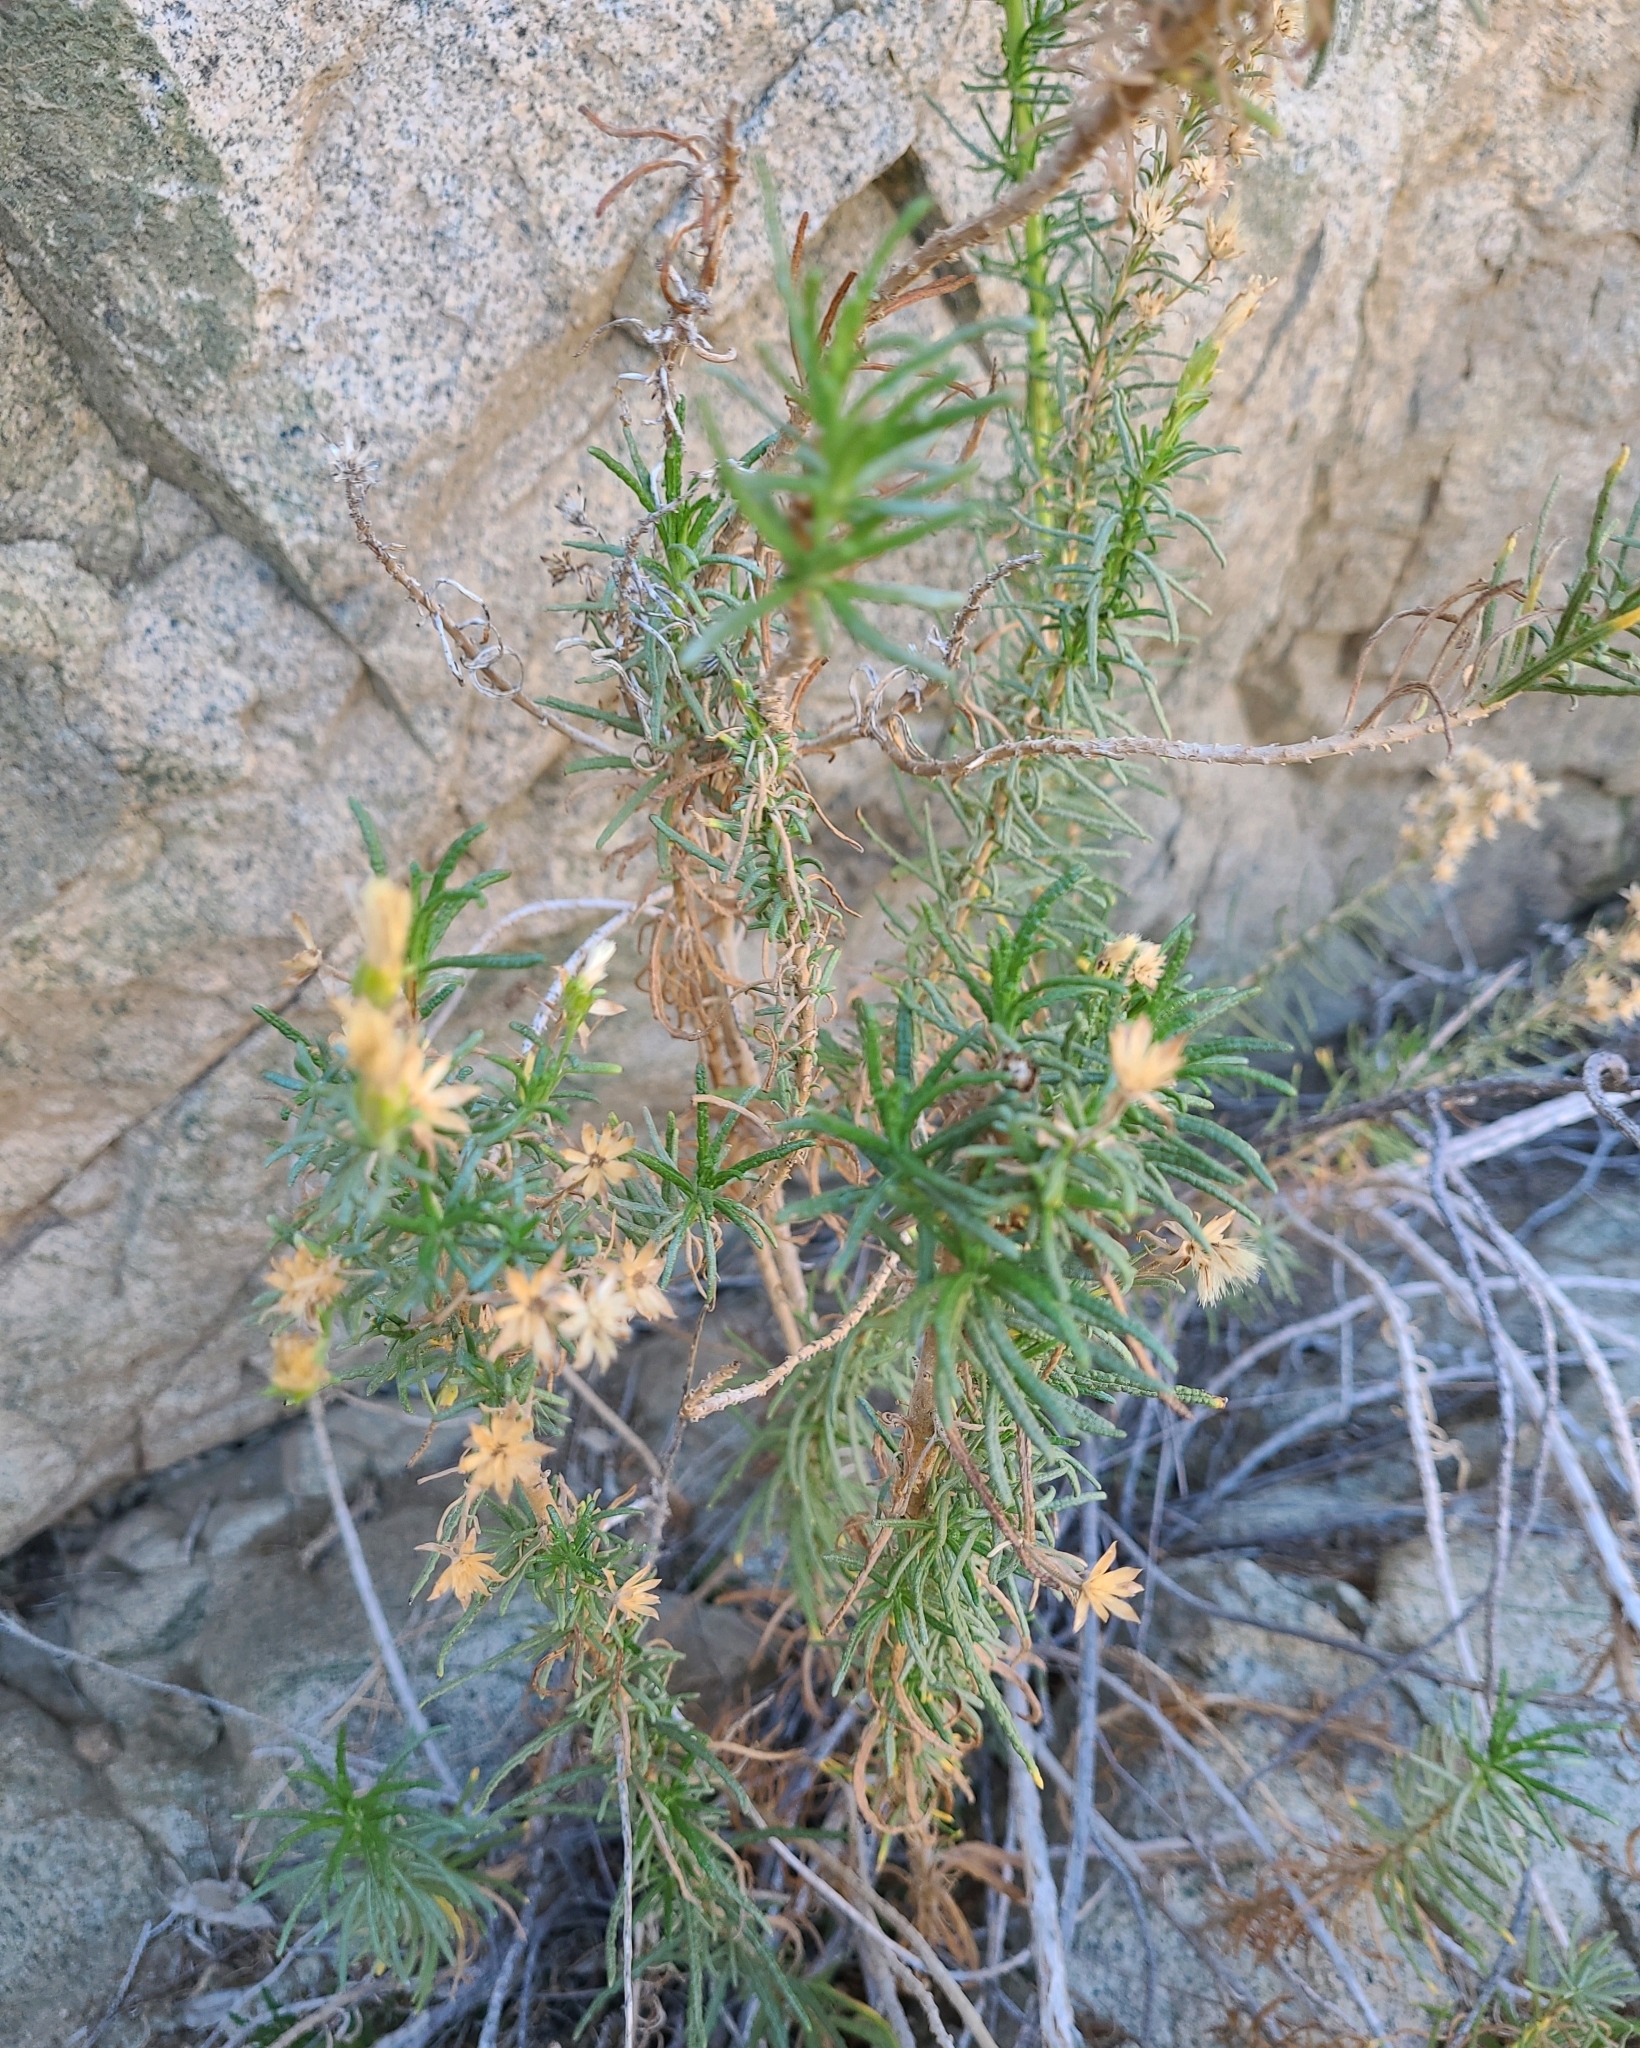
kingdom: Plantae
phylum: Tracheophyta
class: Magnoliopsida
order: Asterales
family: Asteraceae
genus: Jungia
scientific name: Jungia revoluta
